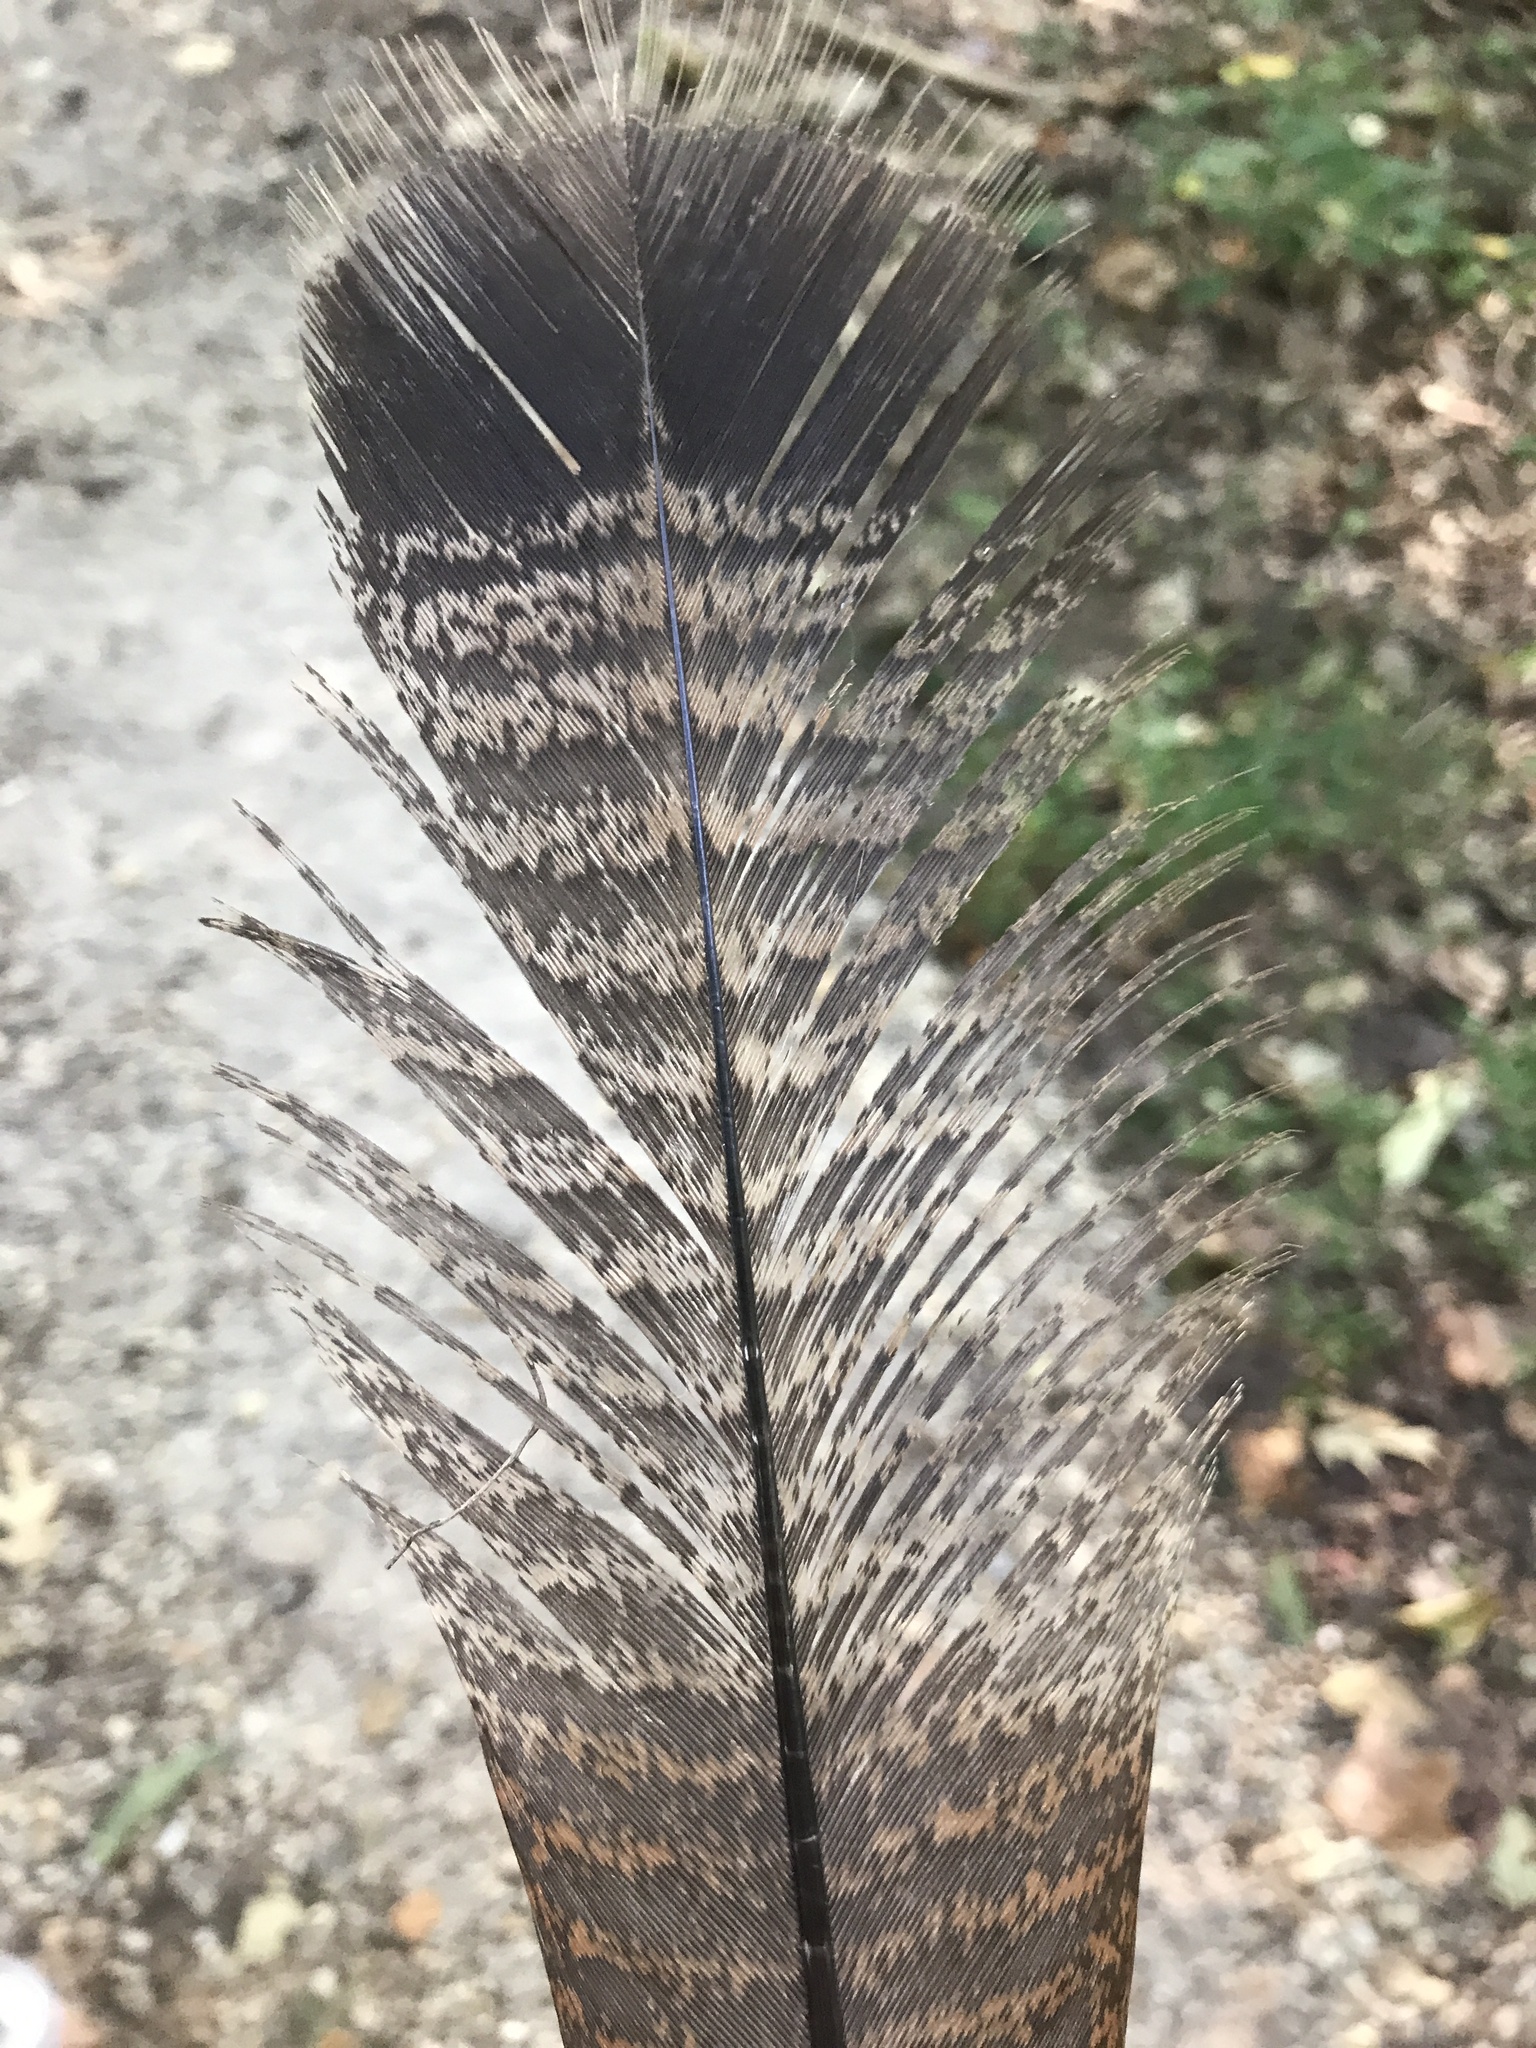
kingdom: Animalia
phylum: Chordata
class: Aves
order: Galliformes
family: Phasianidae
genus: Meleagris
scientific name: Meleagris gallopavo
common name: Wild turkey
